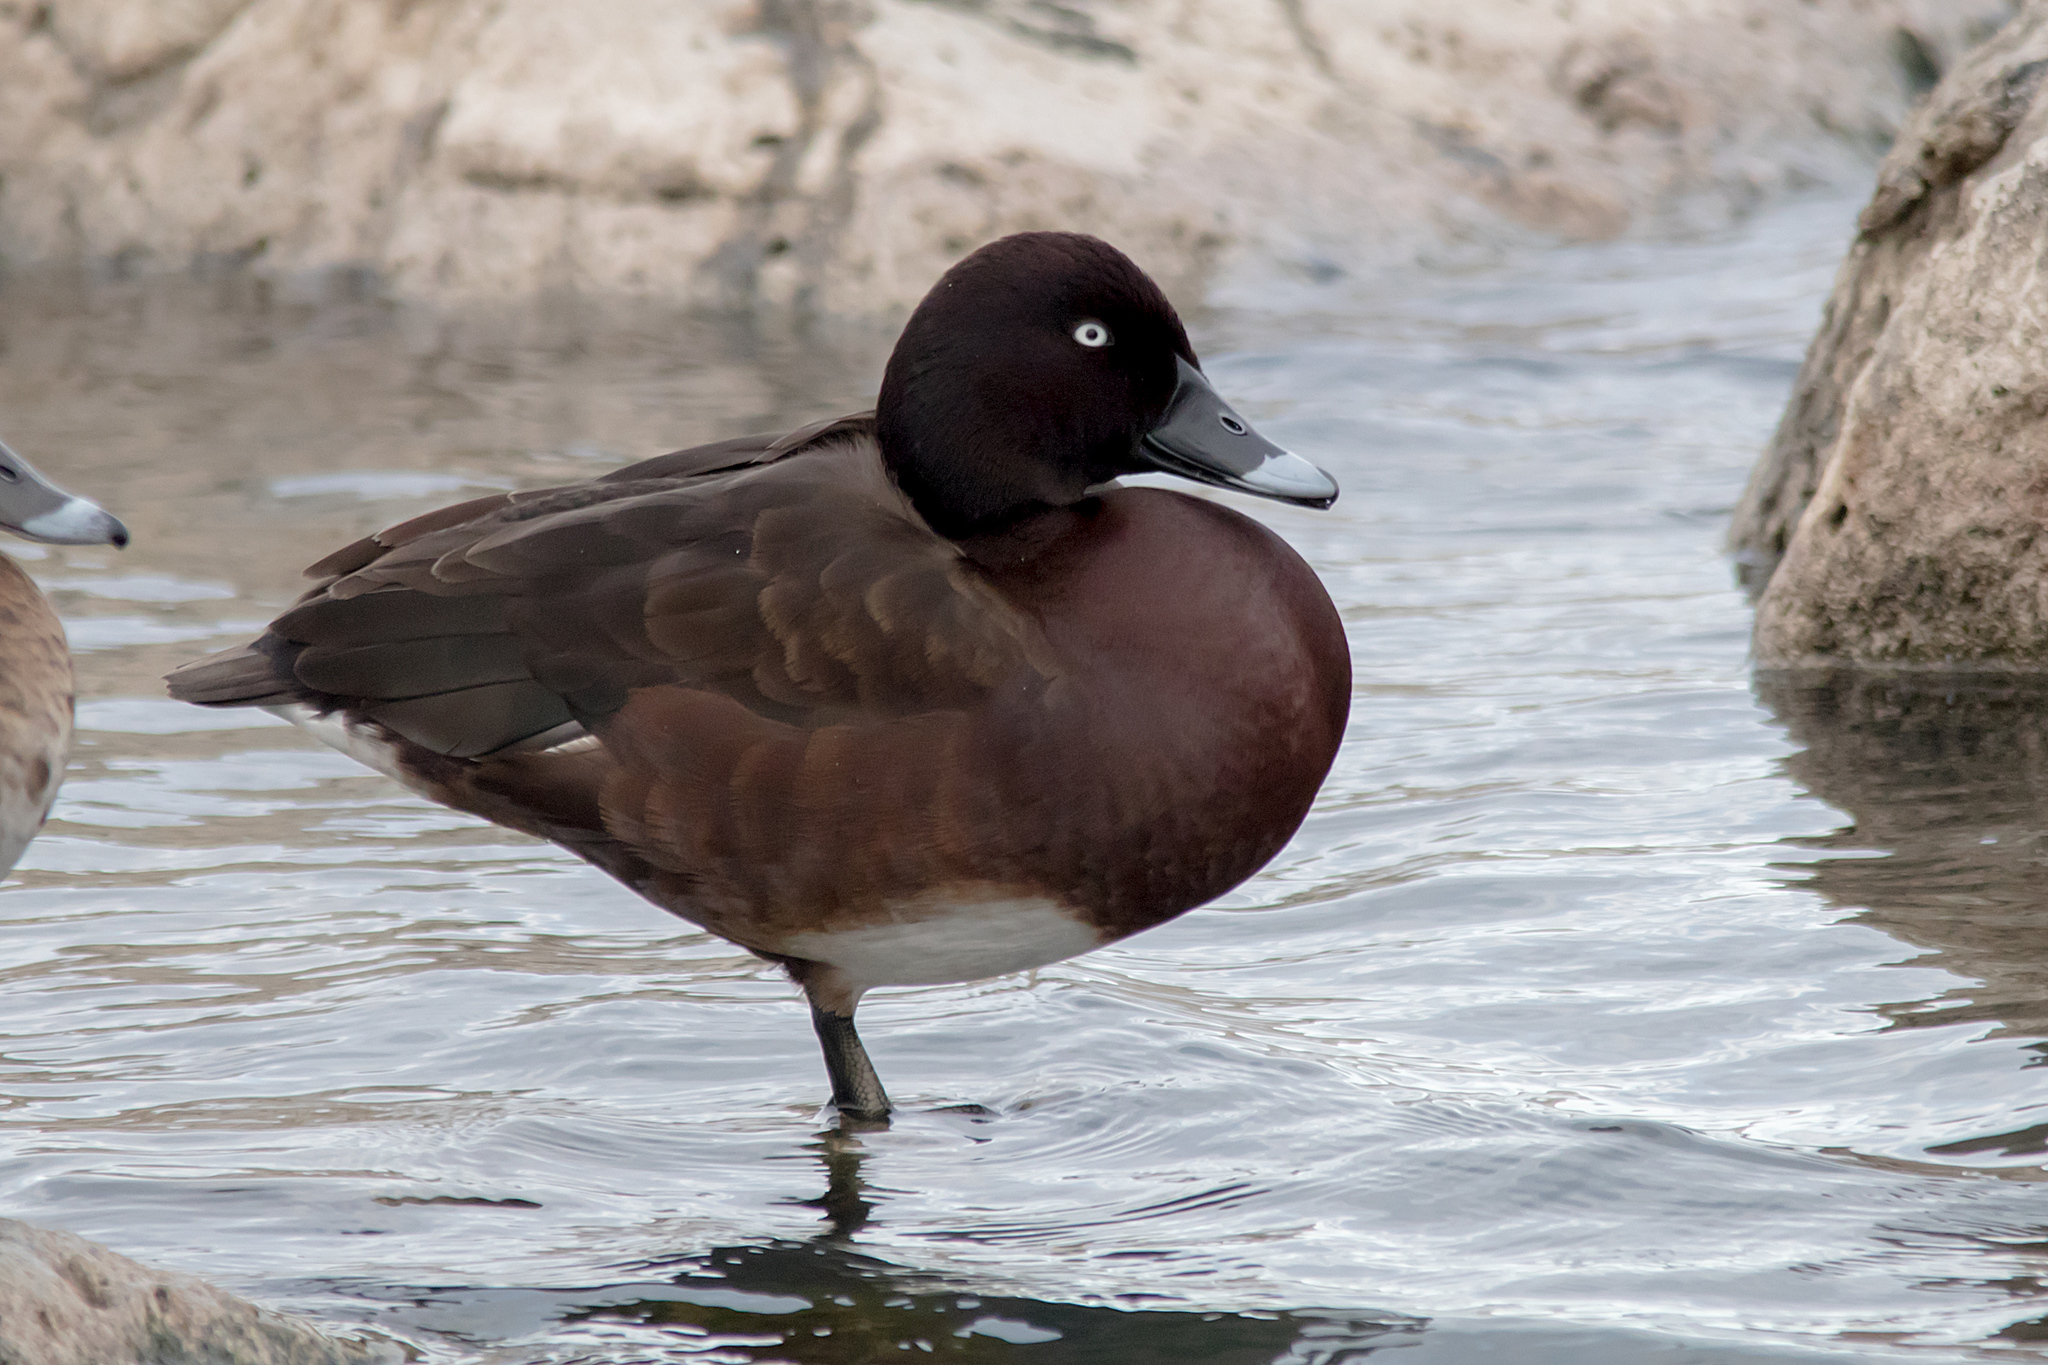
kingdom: Animalia
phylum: Chordata
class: Aves
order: Anseriformes
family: Anatidae
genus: Aythya
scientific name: Aythya australis
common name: Hardhead
